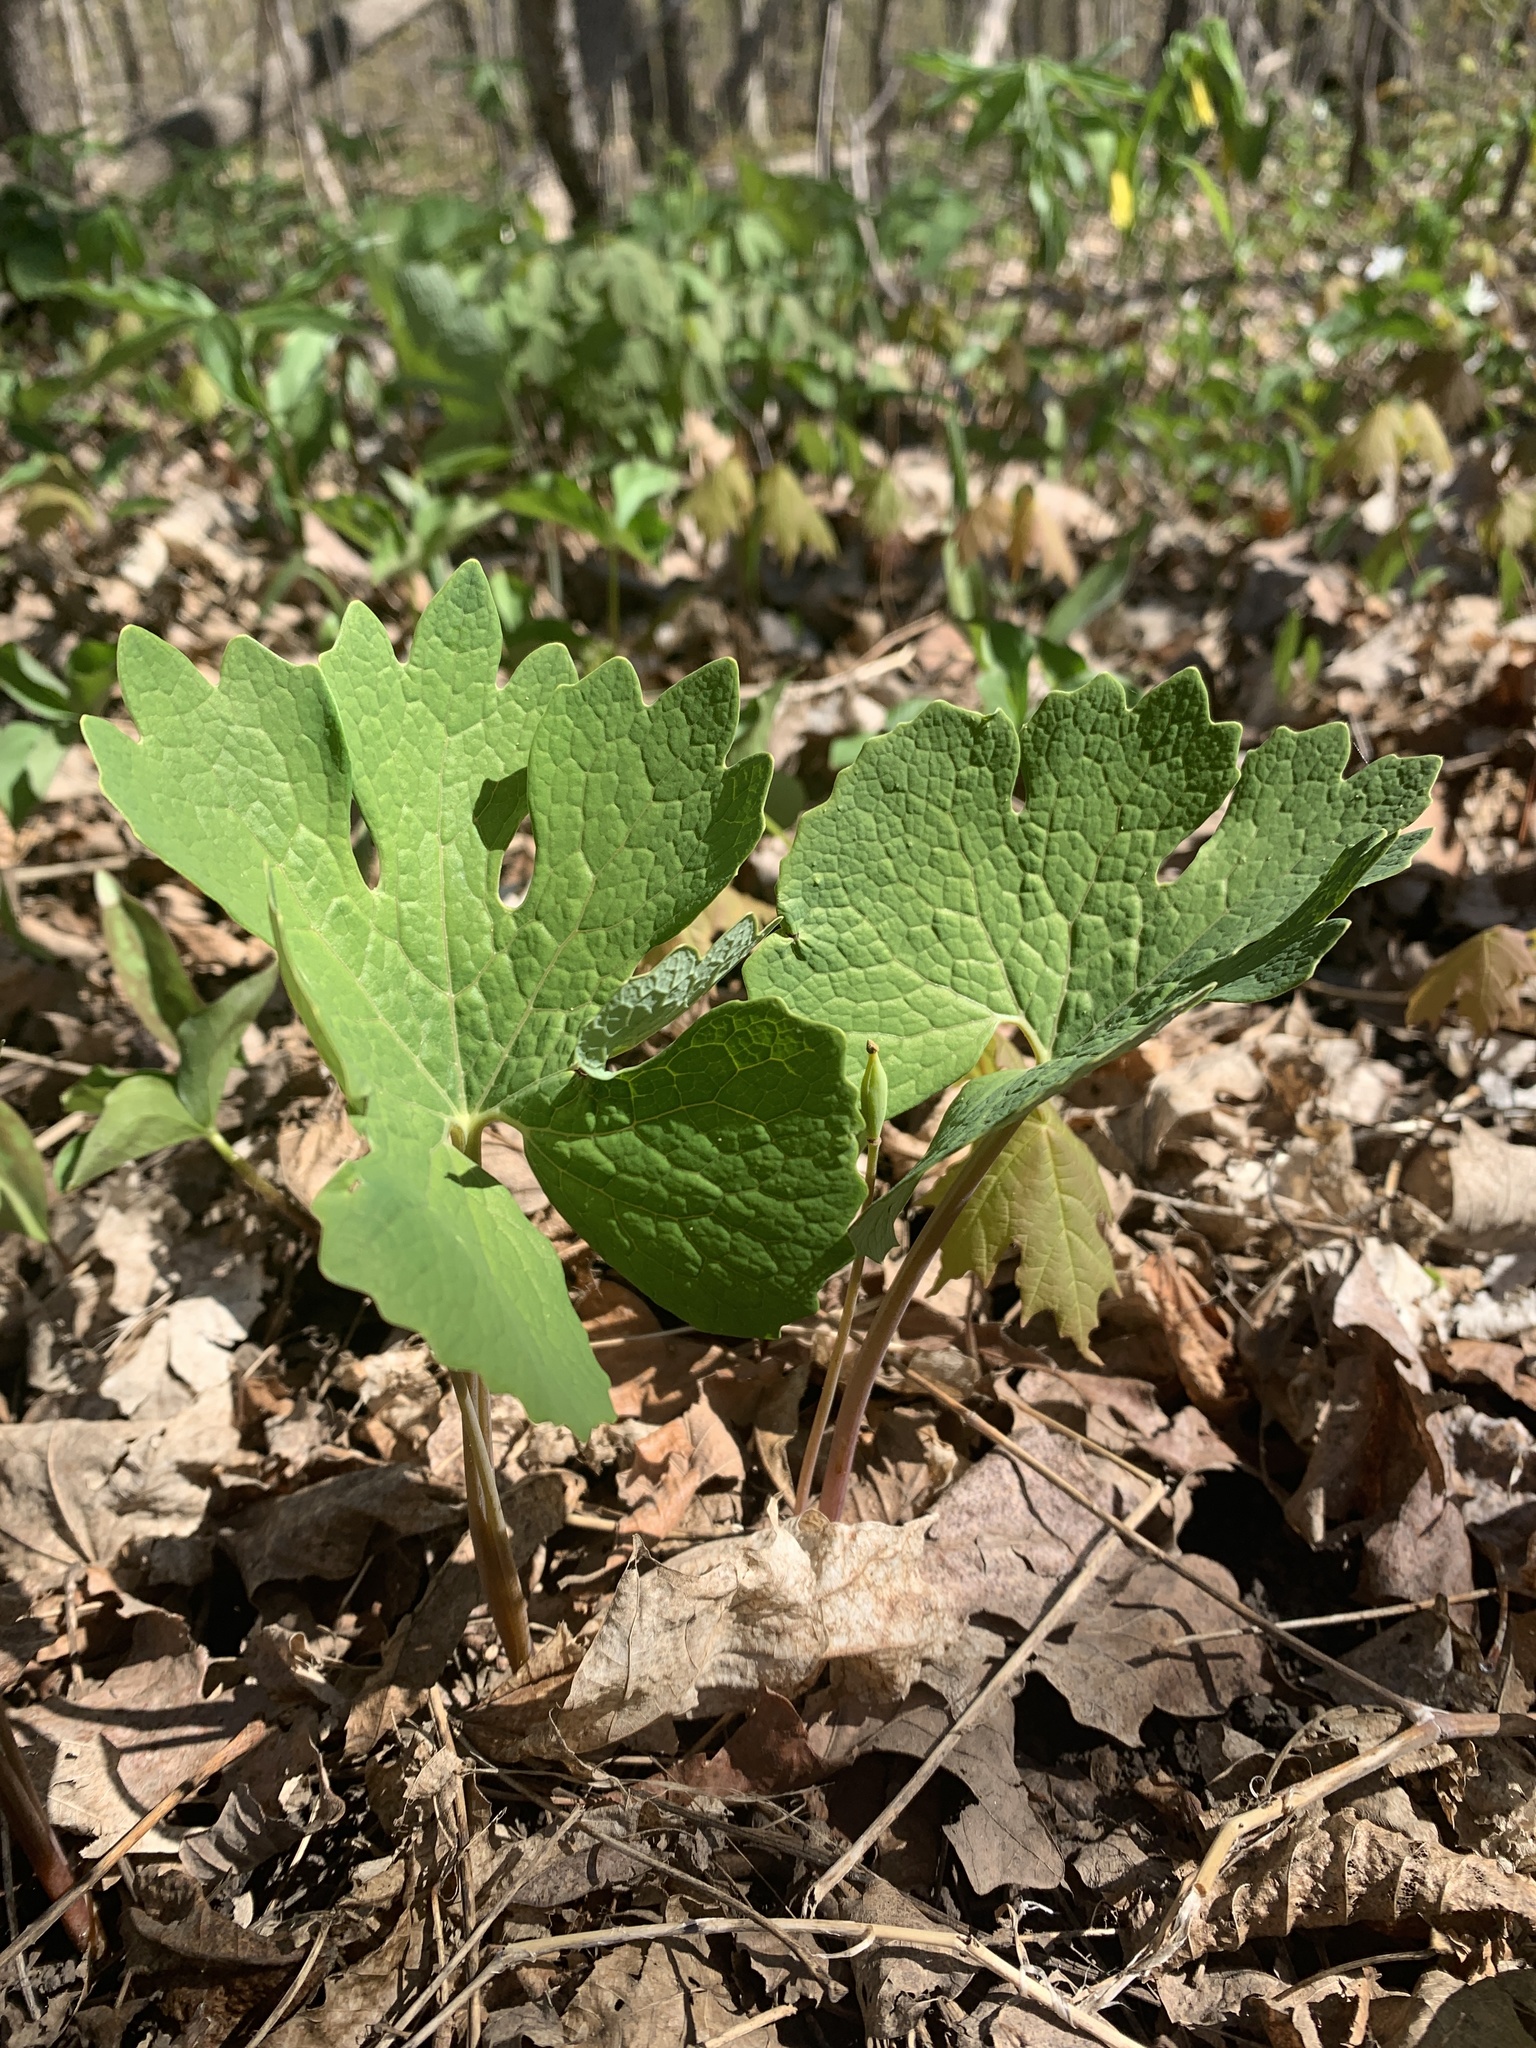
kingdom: Plantae
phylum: Tracheophyta
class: Magnoliopsida
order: Ranunculales
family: Papaveraceae
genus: Sanguinaria
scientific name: Sanguinaria canadensis
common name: Bloodroot
